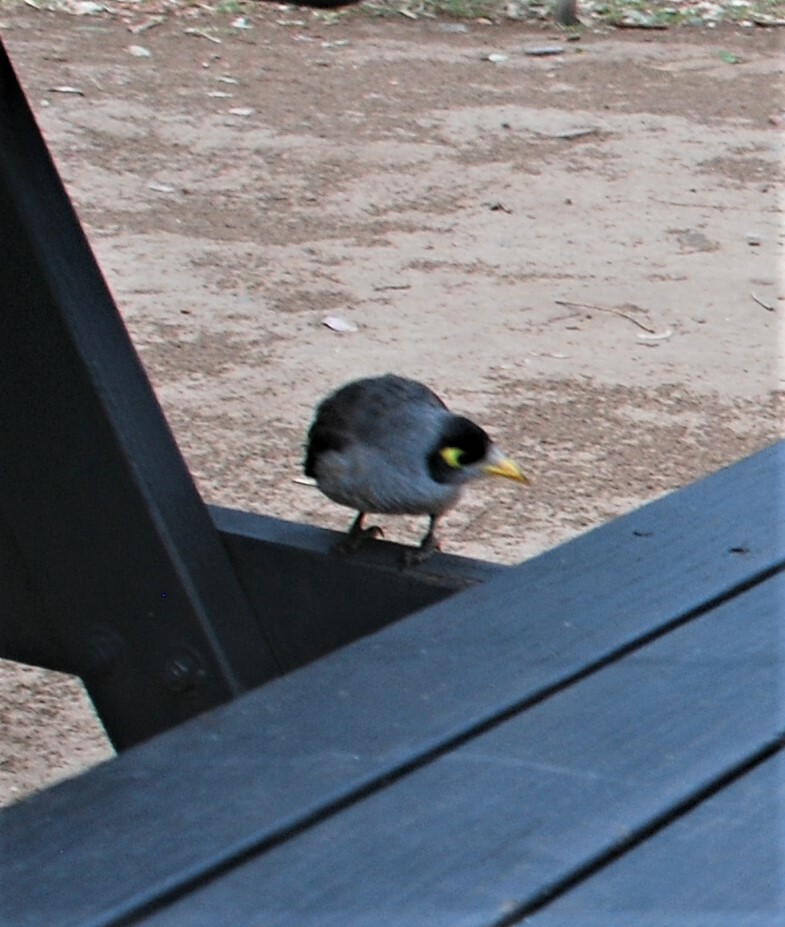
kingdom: Animalia
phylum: Chordata
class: Aves
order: Passeriformes
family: Meliphagidae
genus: Manorina
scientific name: Manorina melanocephala
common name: Noisy miner
